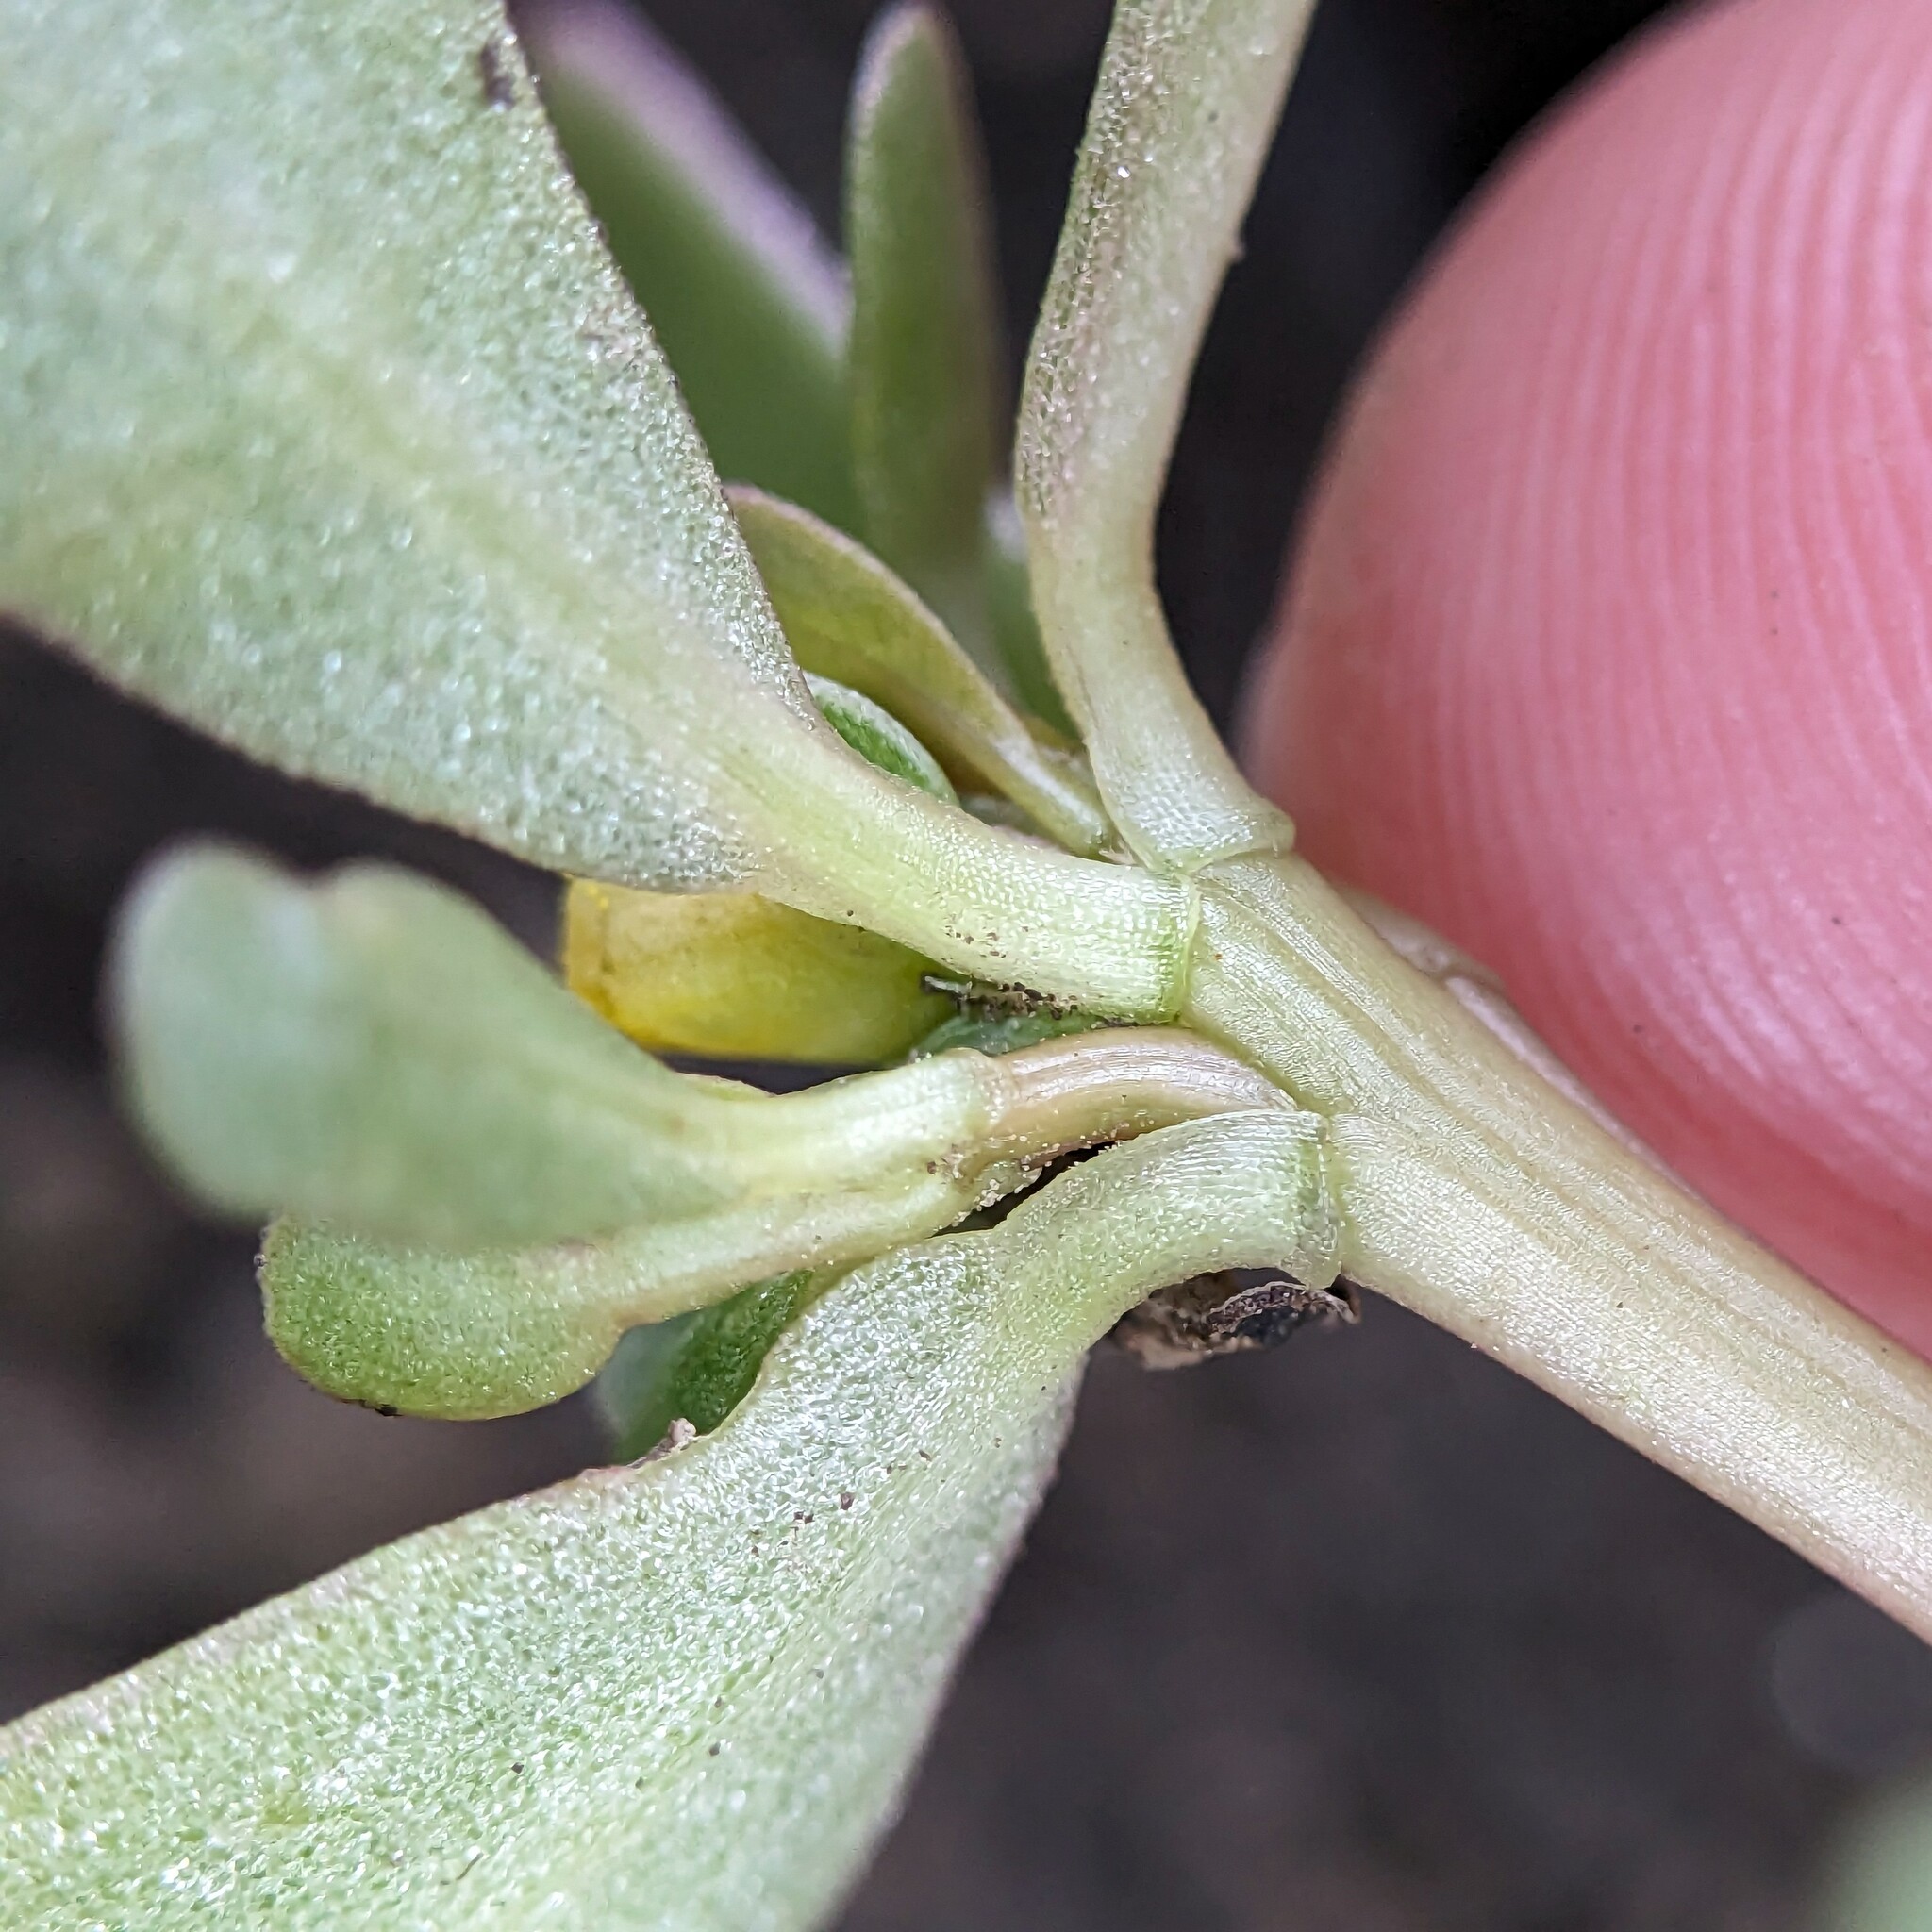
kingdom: Plantae
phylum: Tracheophyta
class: Magnoliopsida
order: Caryophyllales
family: Portulacaceae
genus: Portulaca
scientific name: Portulaca oleracea
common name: Common purslane
